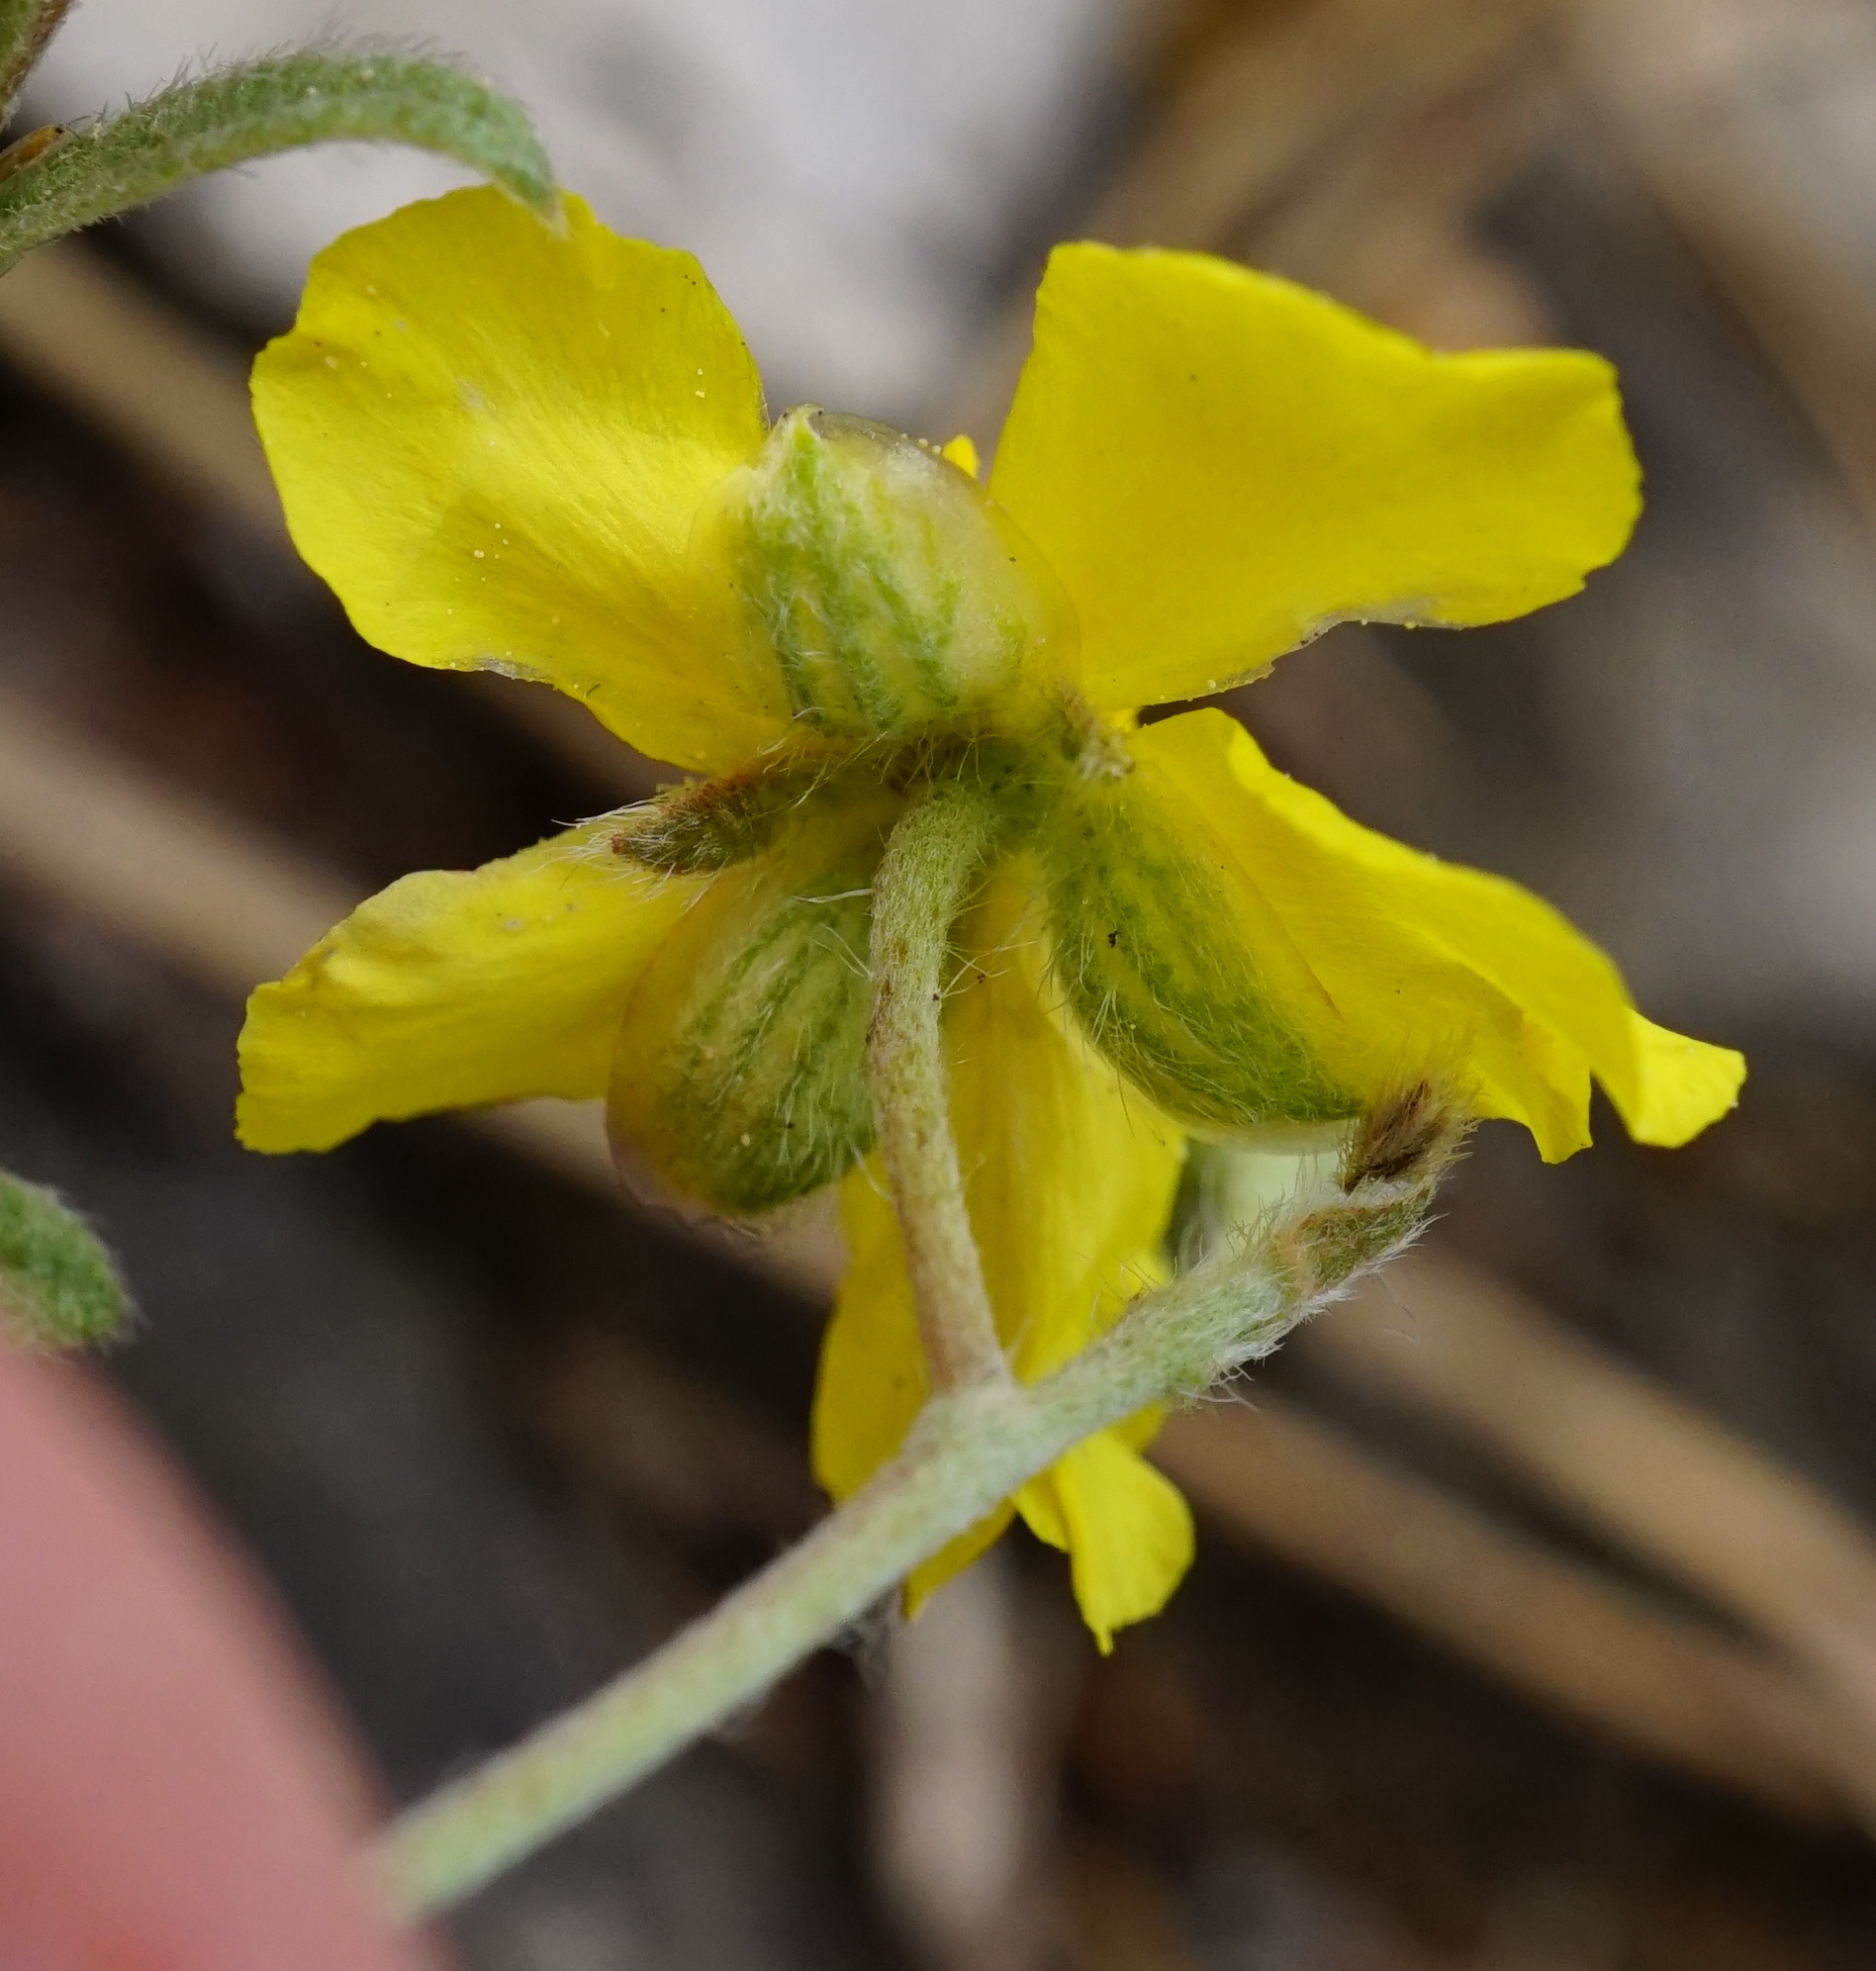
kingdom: Plantae
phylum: Tracheophyta
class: Magnoliopsida
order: Malvales
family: Cistaceae
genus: Helianthemum
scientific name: Helianthemum canum
